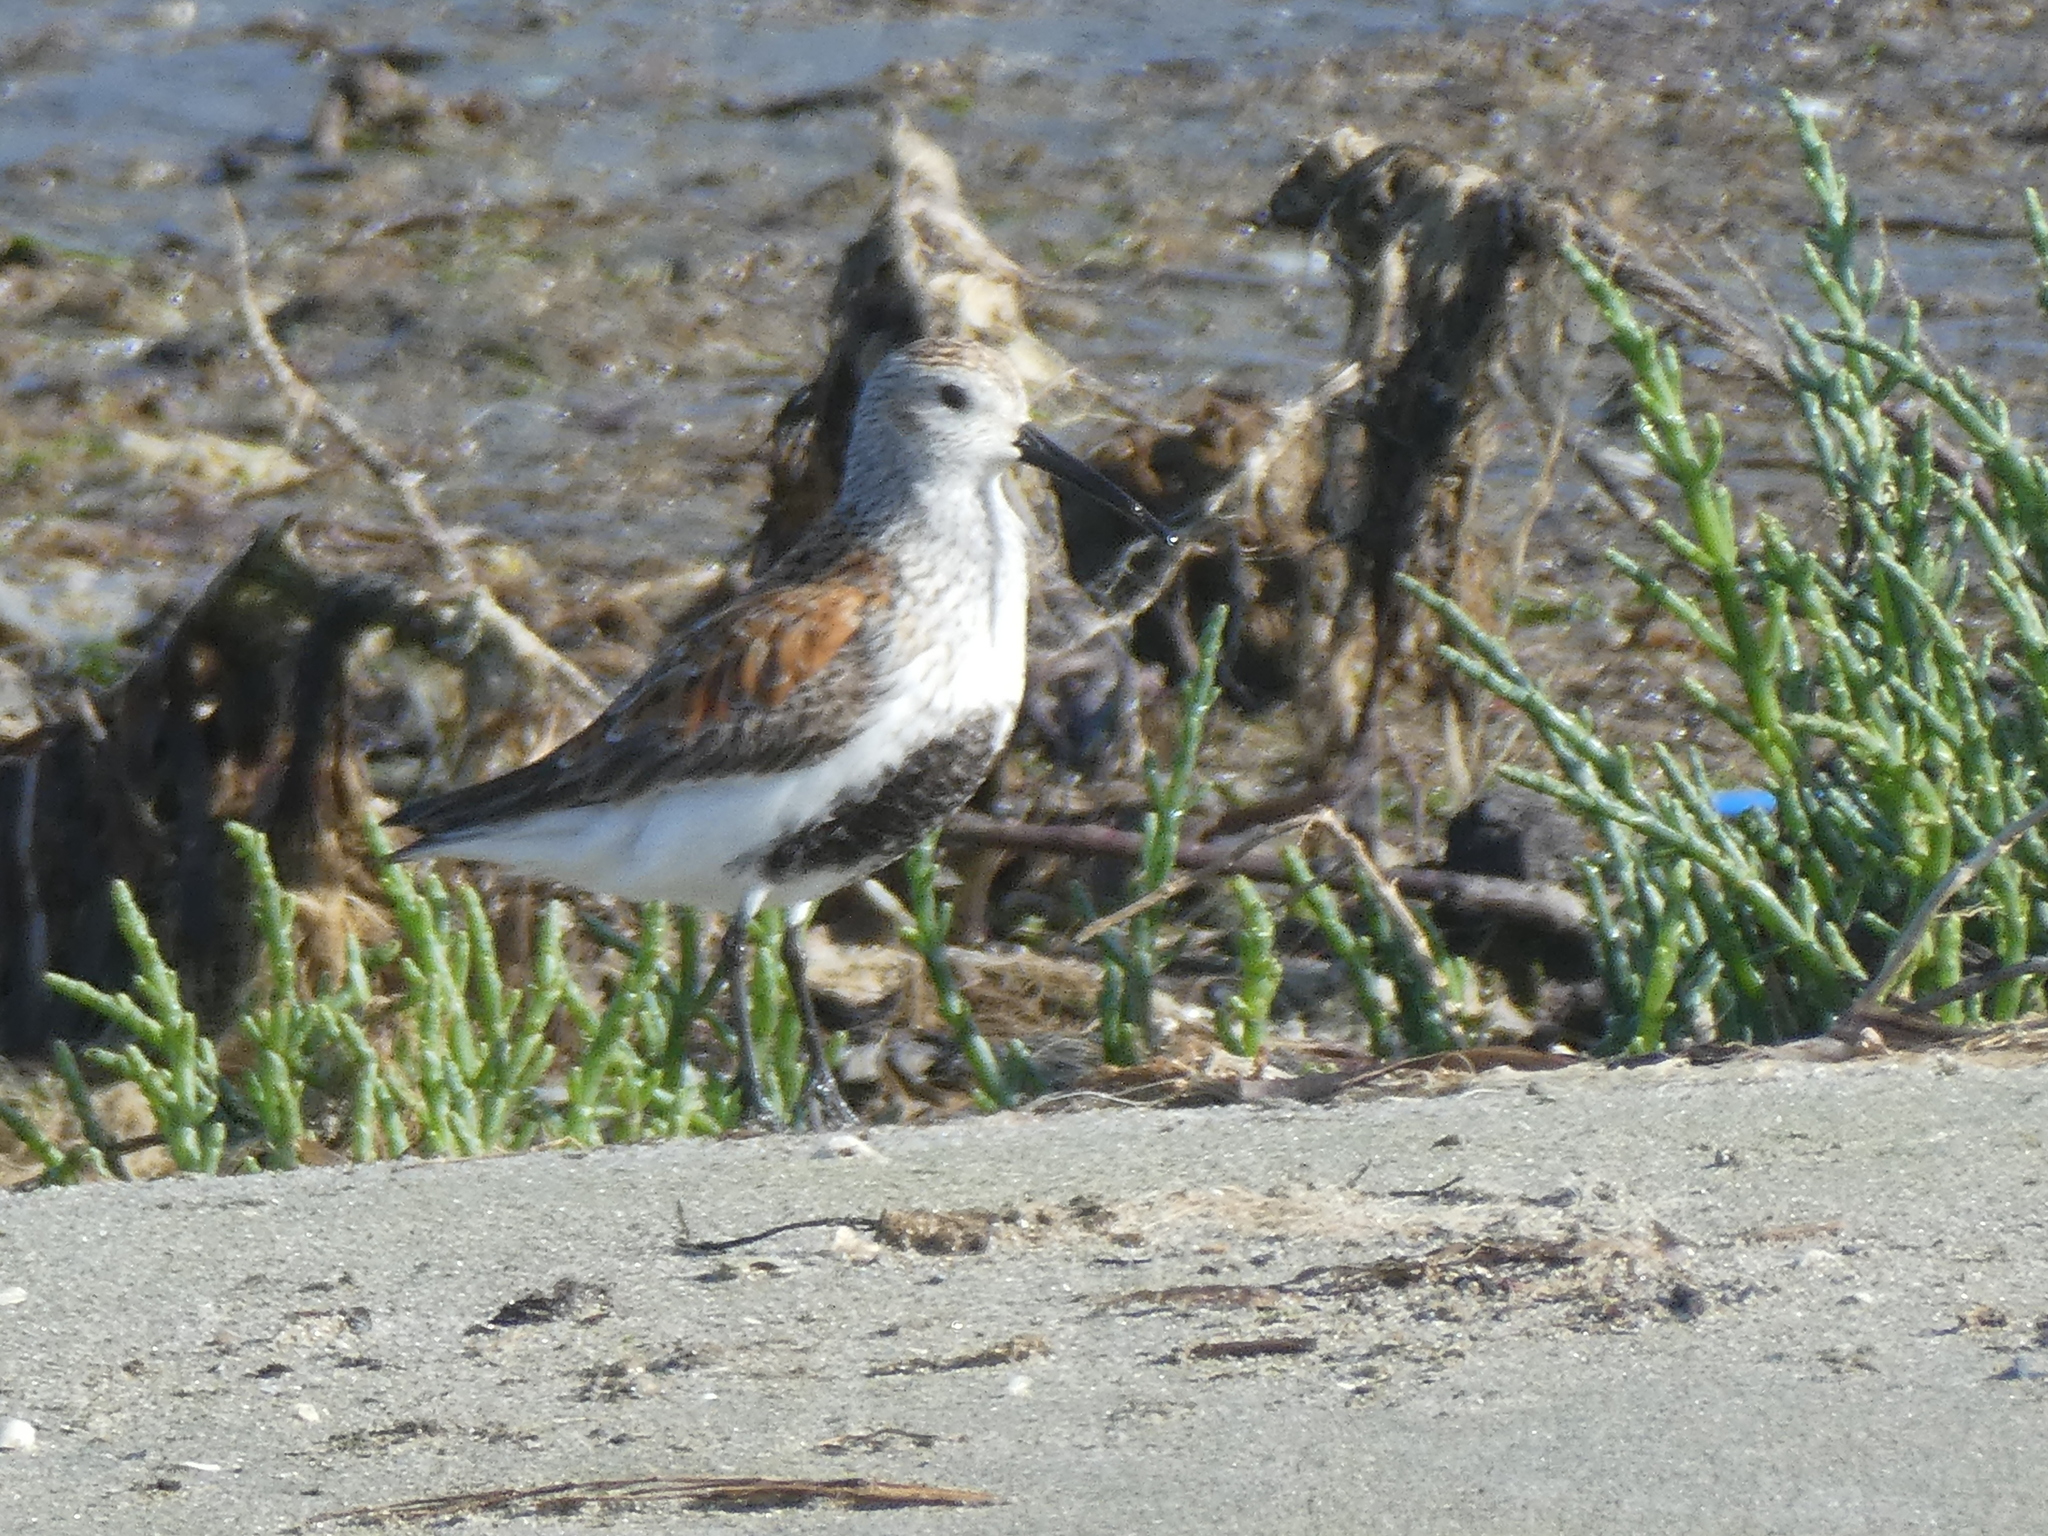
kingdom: Animalia
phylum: Chordata
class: Aves
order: Charadriiformes
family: Scolopacidae
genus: Calidris
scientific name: Calidris alpina
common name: Dunlin
